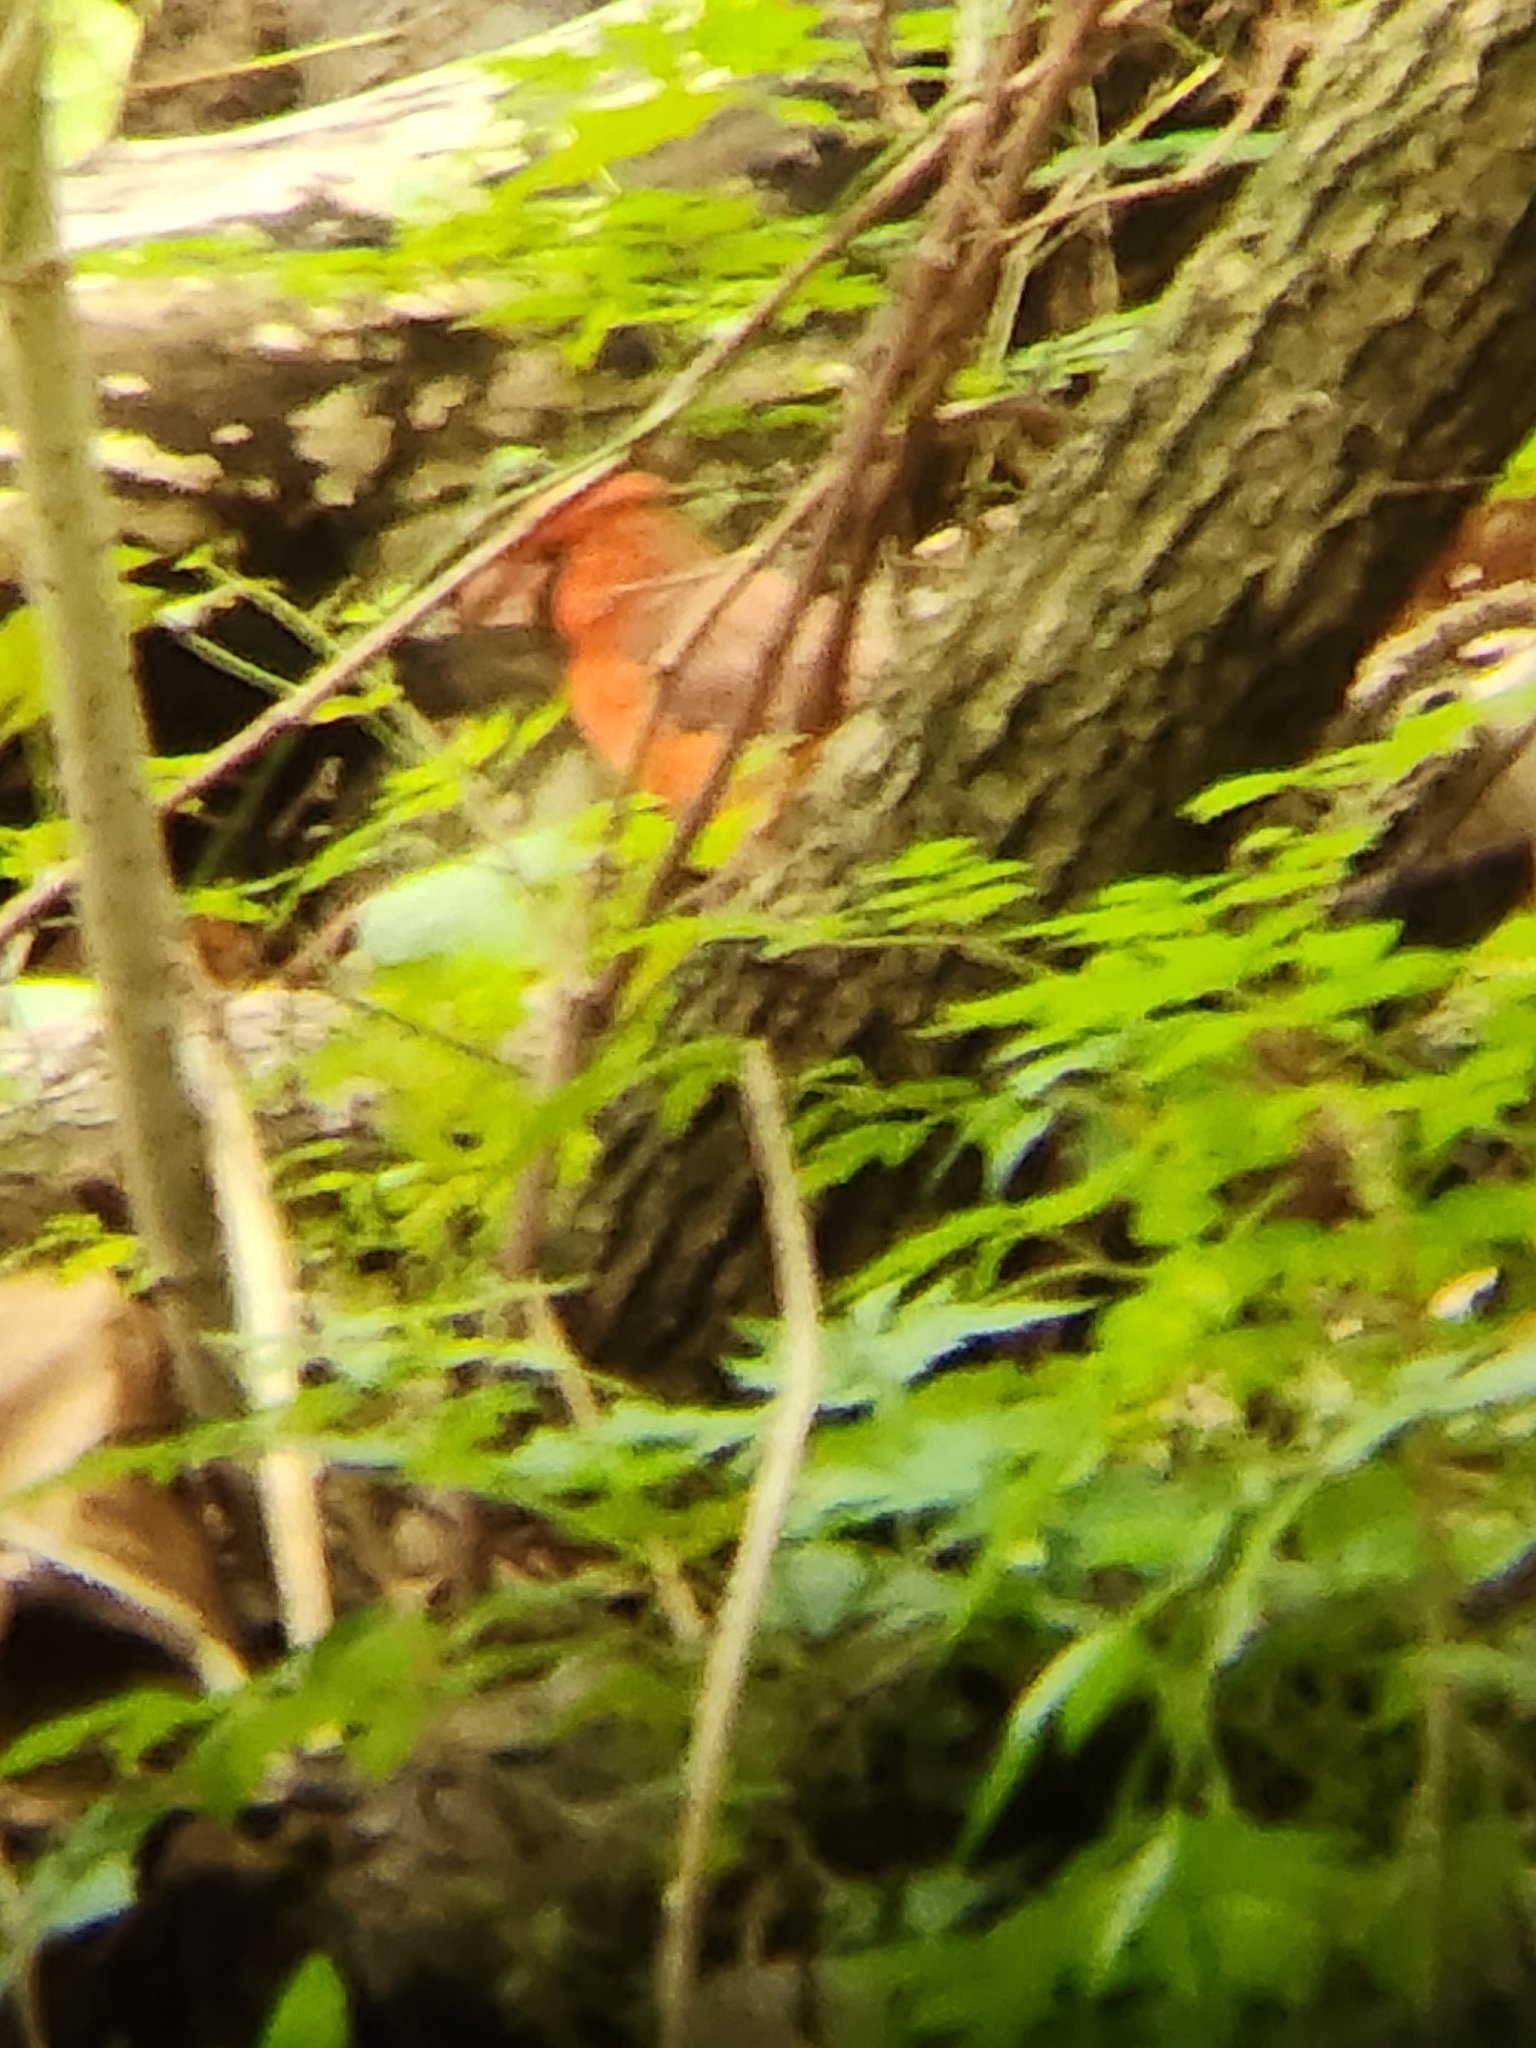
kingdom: Animalia
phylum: Chordata
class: Aves
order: Passeriformes
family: Cardinalidae
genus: Cardinalis
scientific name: Cardinalis cardinalis
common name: Northern cardinal
